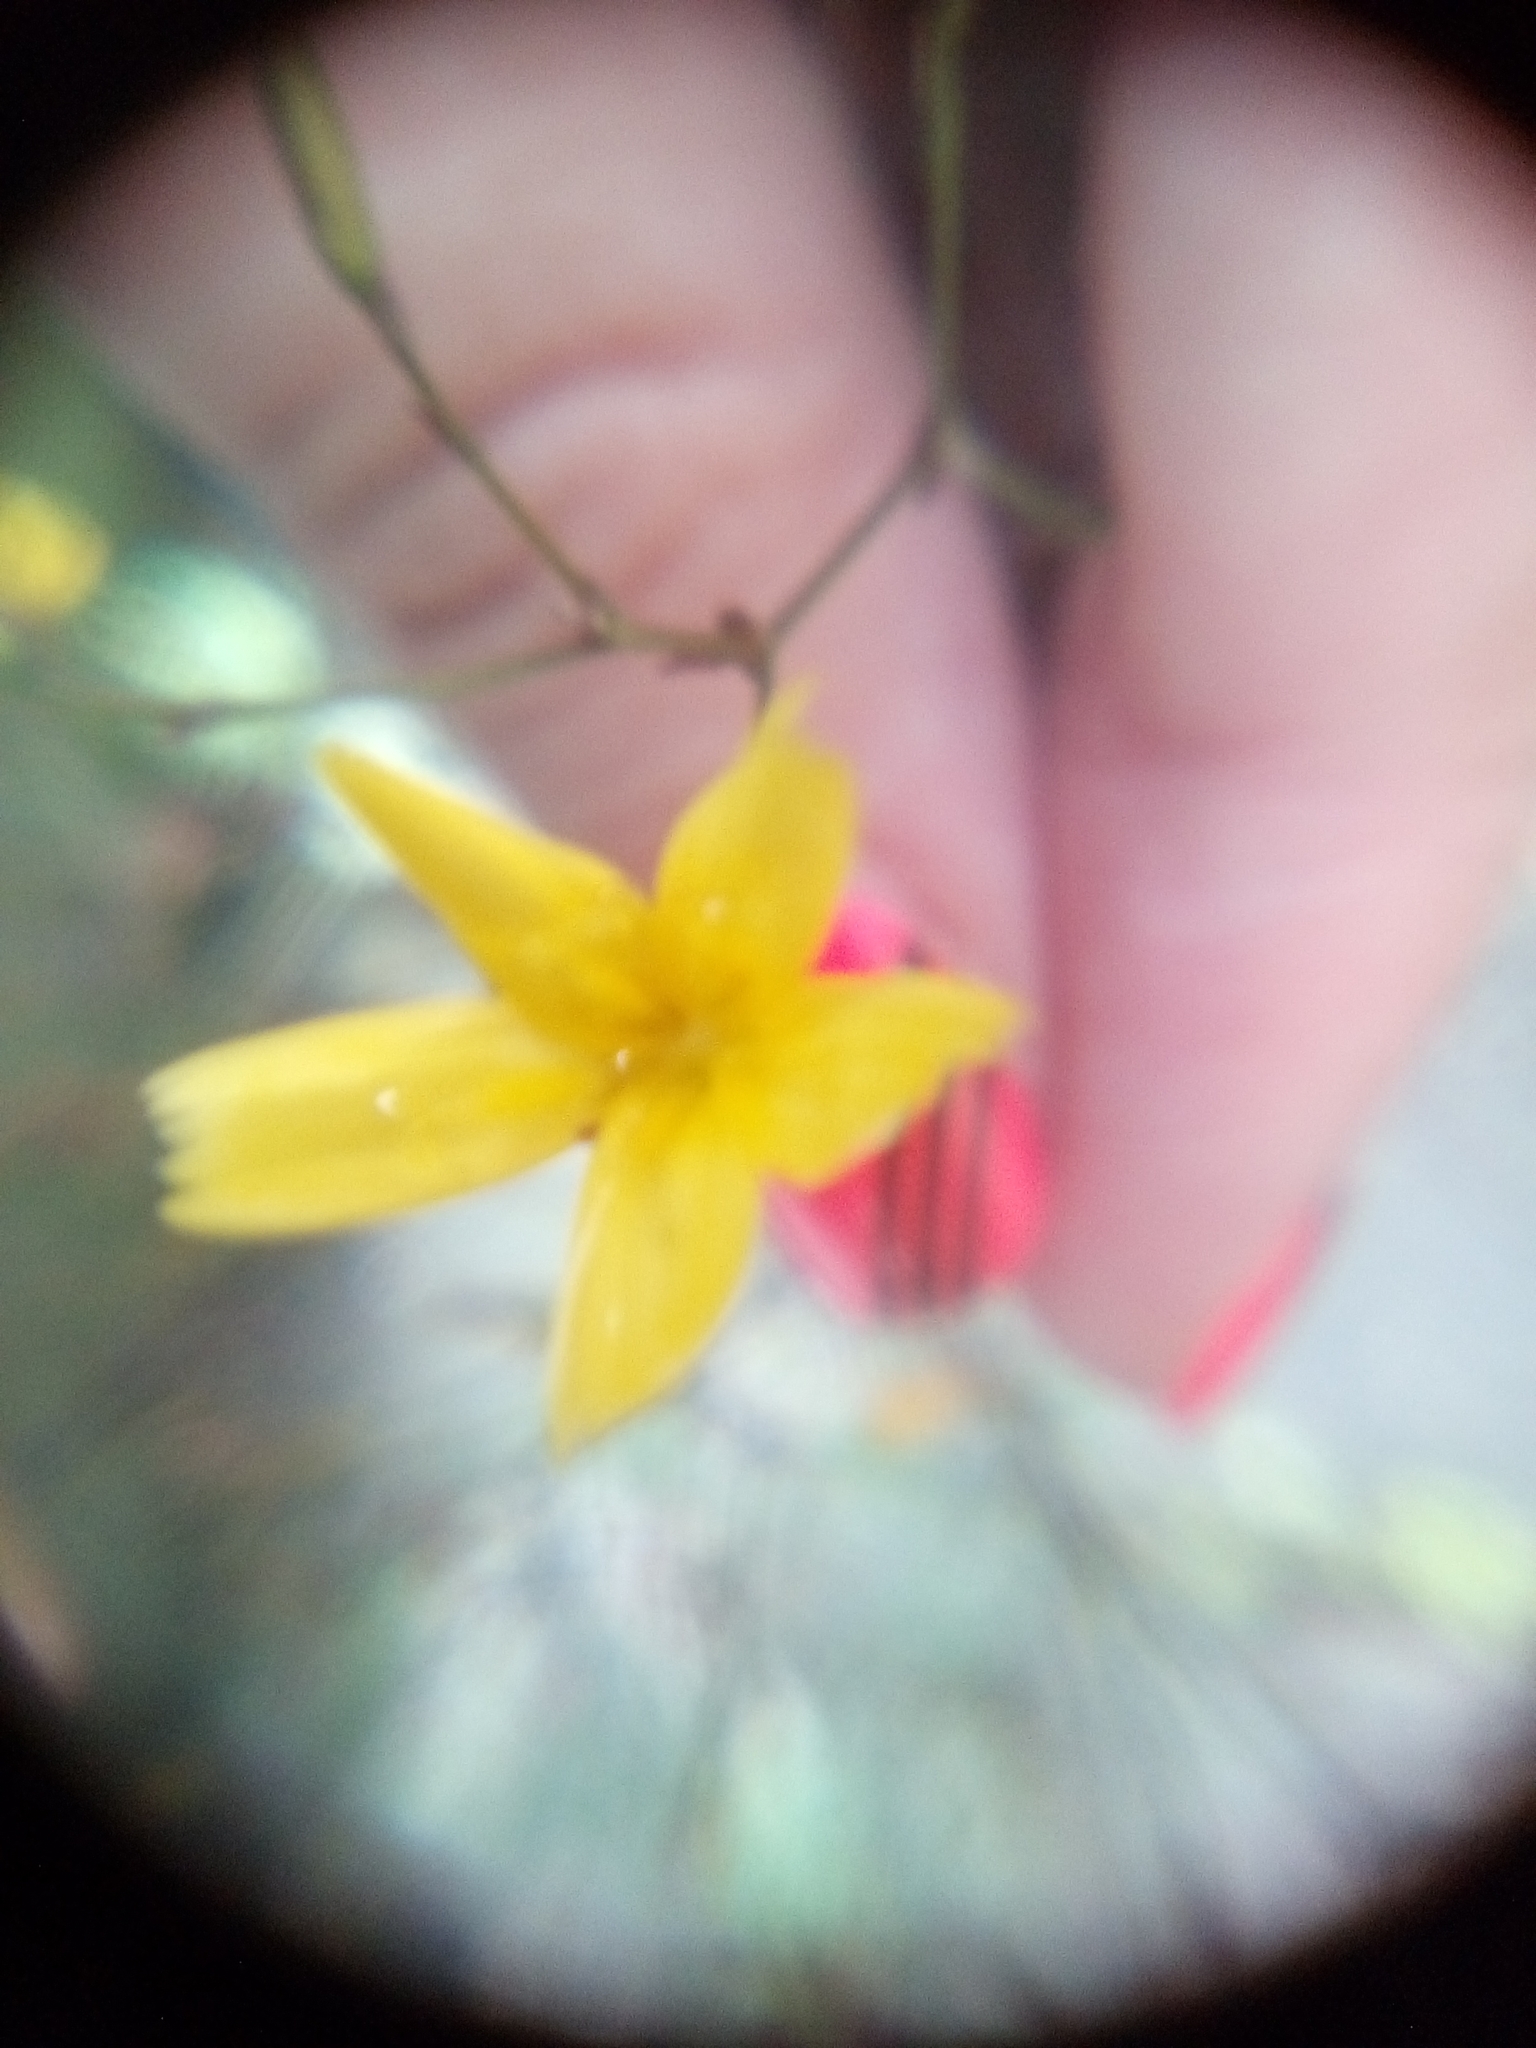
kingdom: Plantae
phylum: Tracheophyta
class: Magnoliopsida
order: Asterales
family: Asteraceae
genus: Mycelis
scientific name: Mycelis muralis
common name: Wall lettuce
